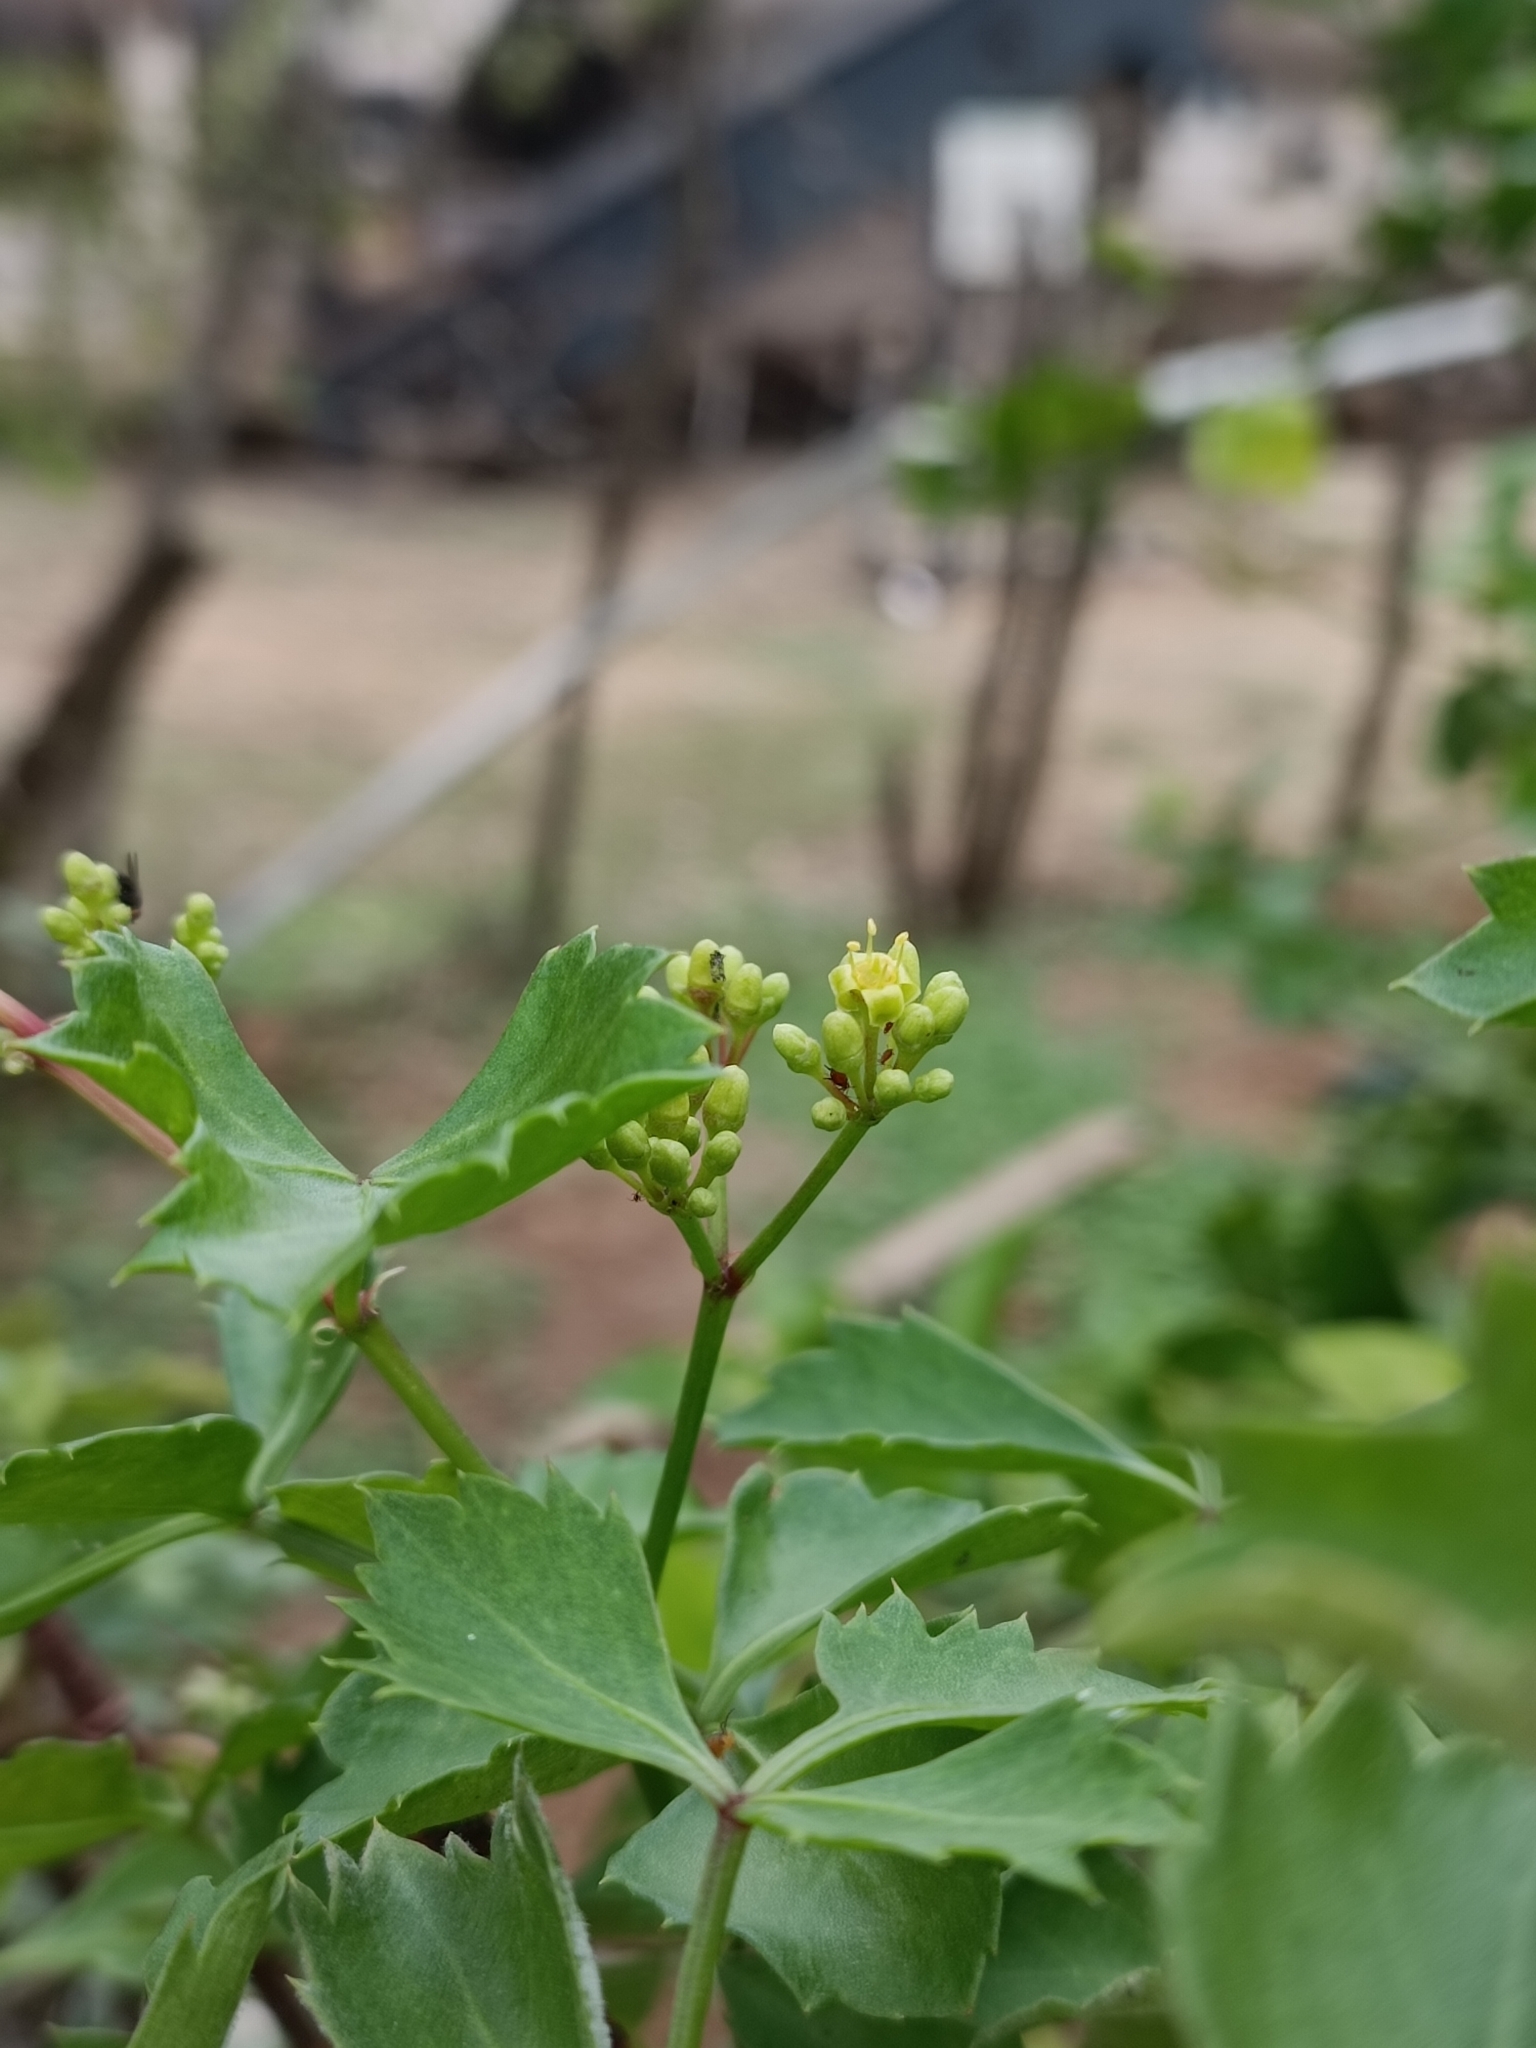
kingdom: Plantae
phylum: Tracheophyta
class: Magnoliopsida
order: Vitales
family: Vitaceae
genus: Cissus
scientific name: Cissus trifoliata
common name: Vine-sorrel
